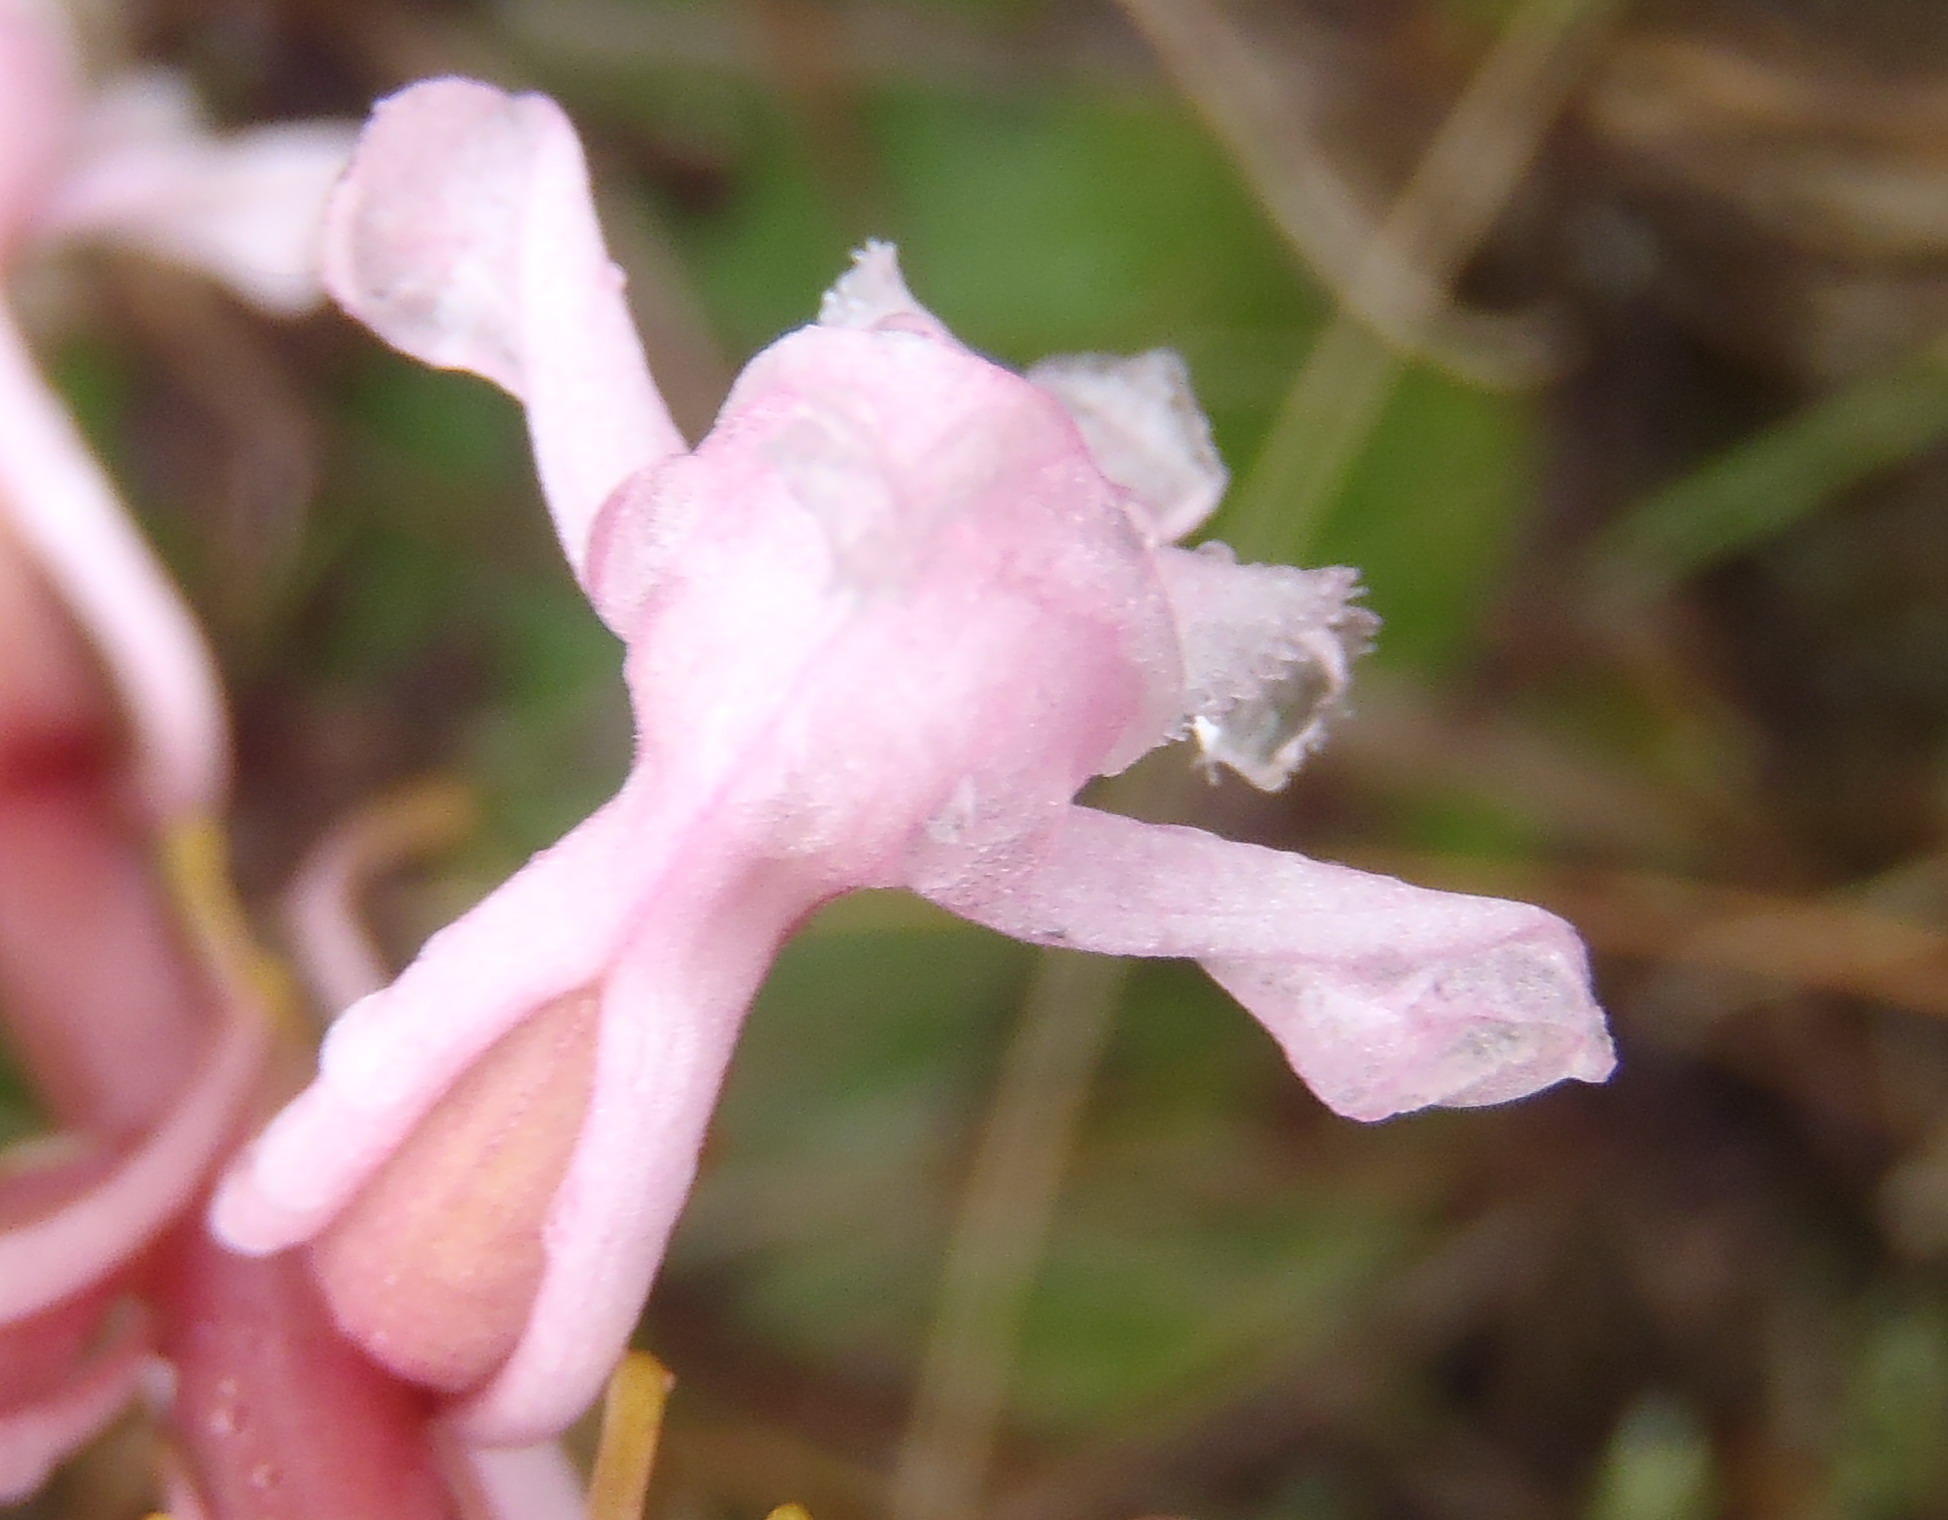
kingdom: Plantae
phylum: Tracheophyta
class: Liliopsida
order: Asparagales
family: Orchidaceae
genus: Satyrium
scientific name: Satyrium membranaceum
